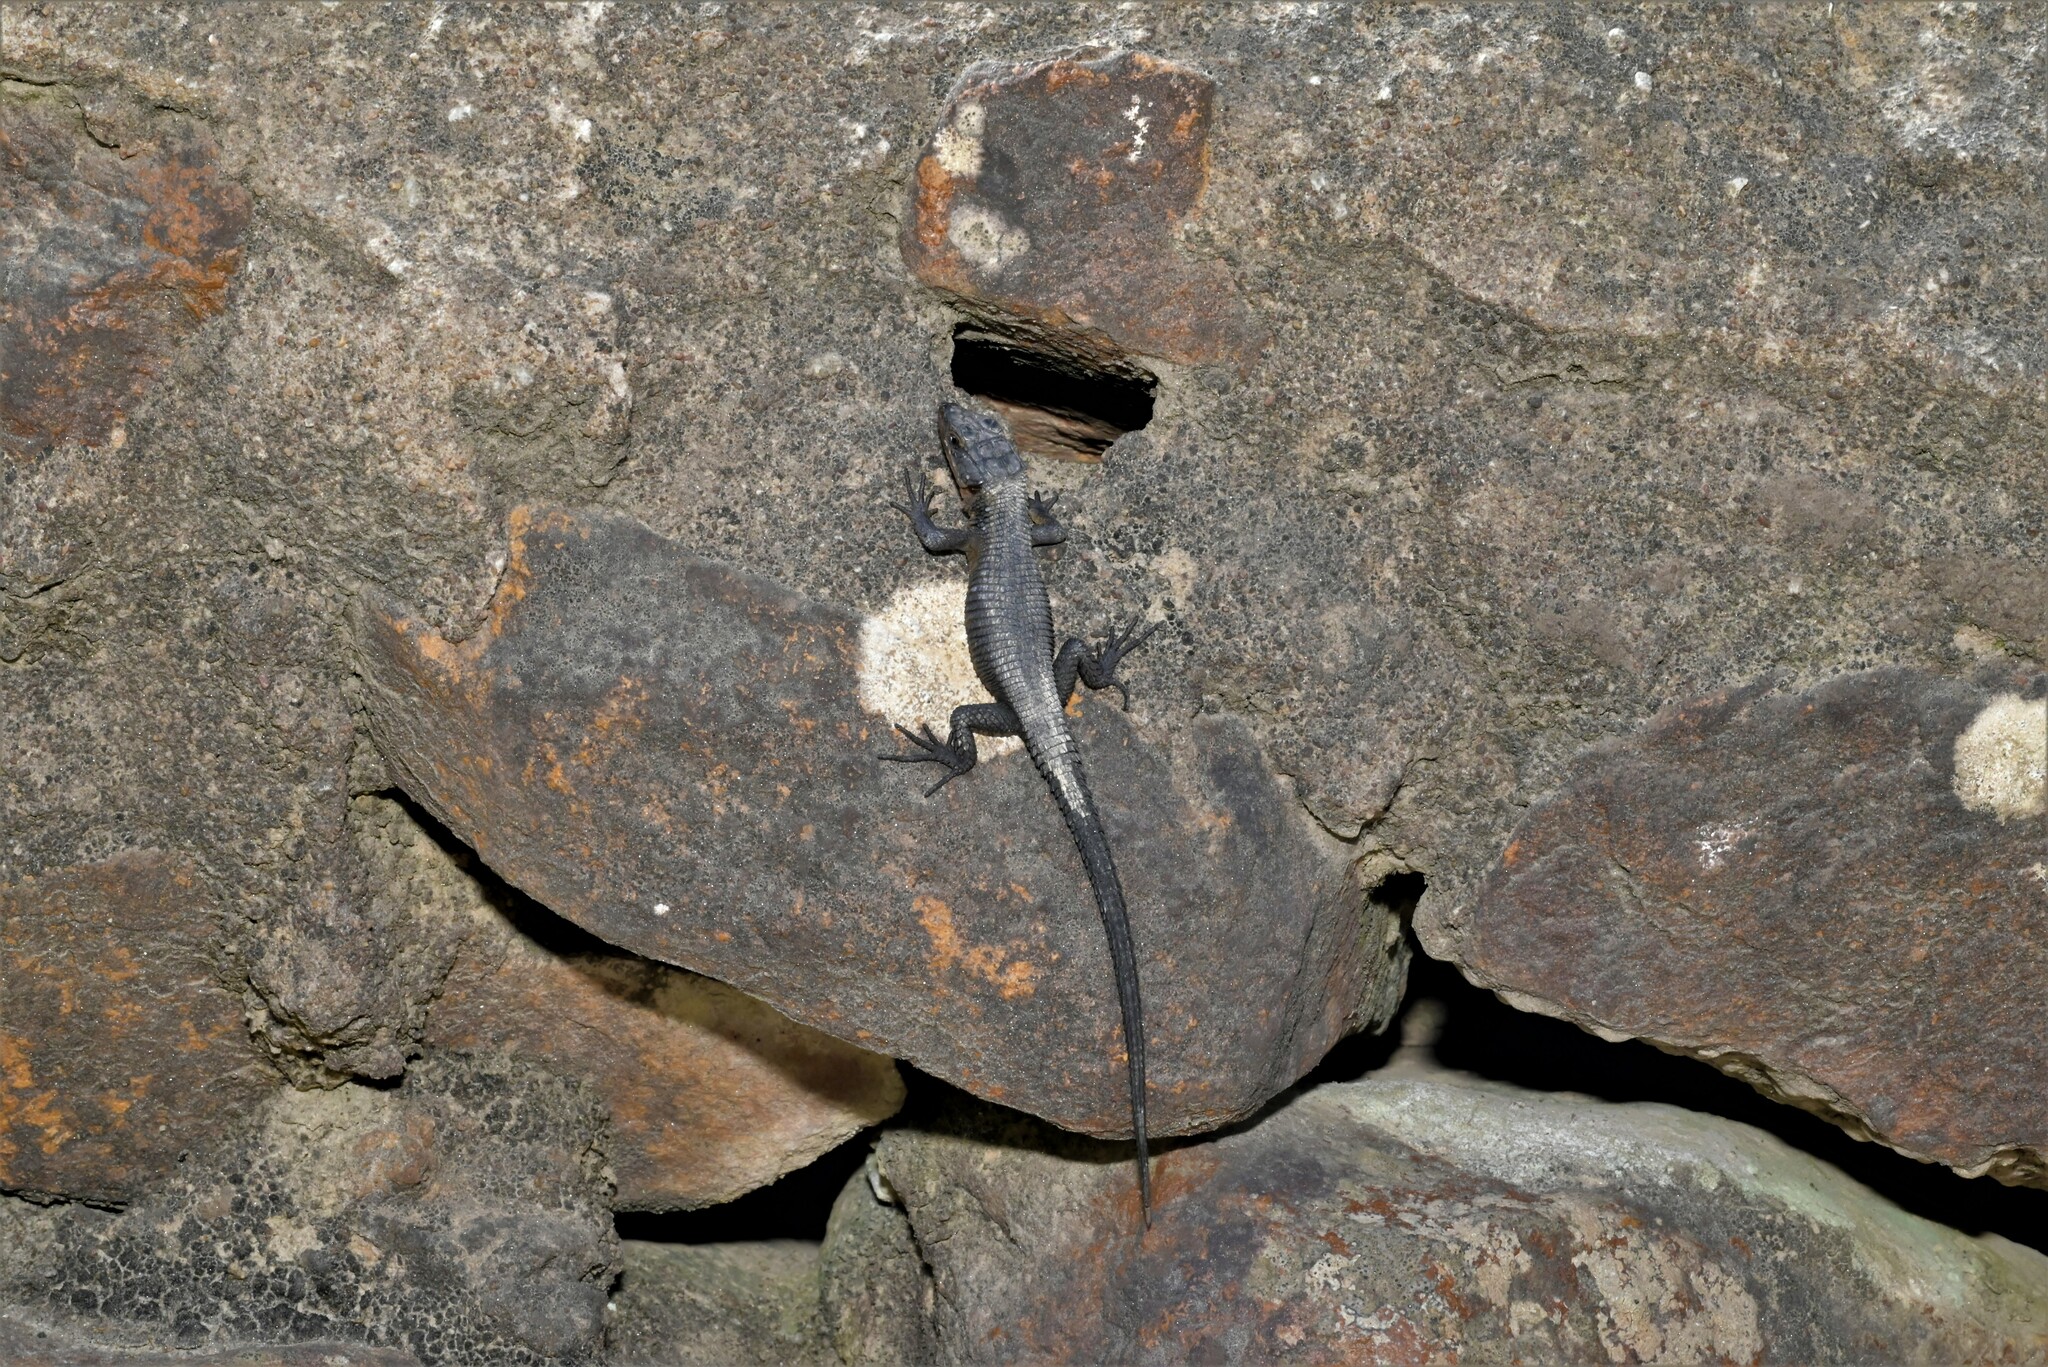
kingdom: Animalia
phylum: Chordata
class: Squamata
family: Cordylidae
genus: Ninurta
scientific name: Ninurta coeruleopunctatus
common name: Blue-spotted girdled lizard
